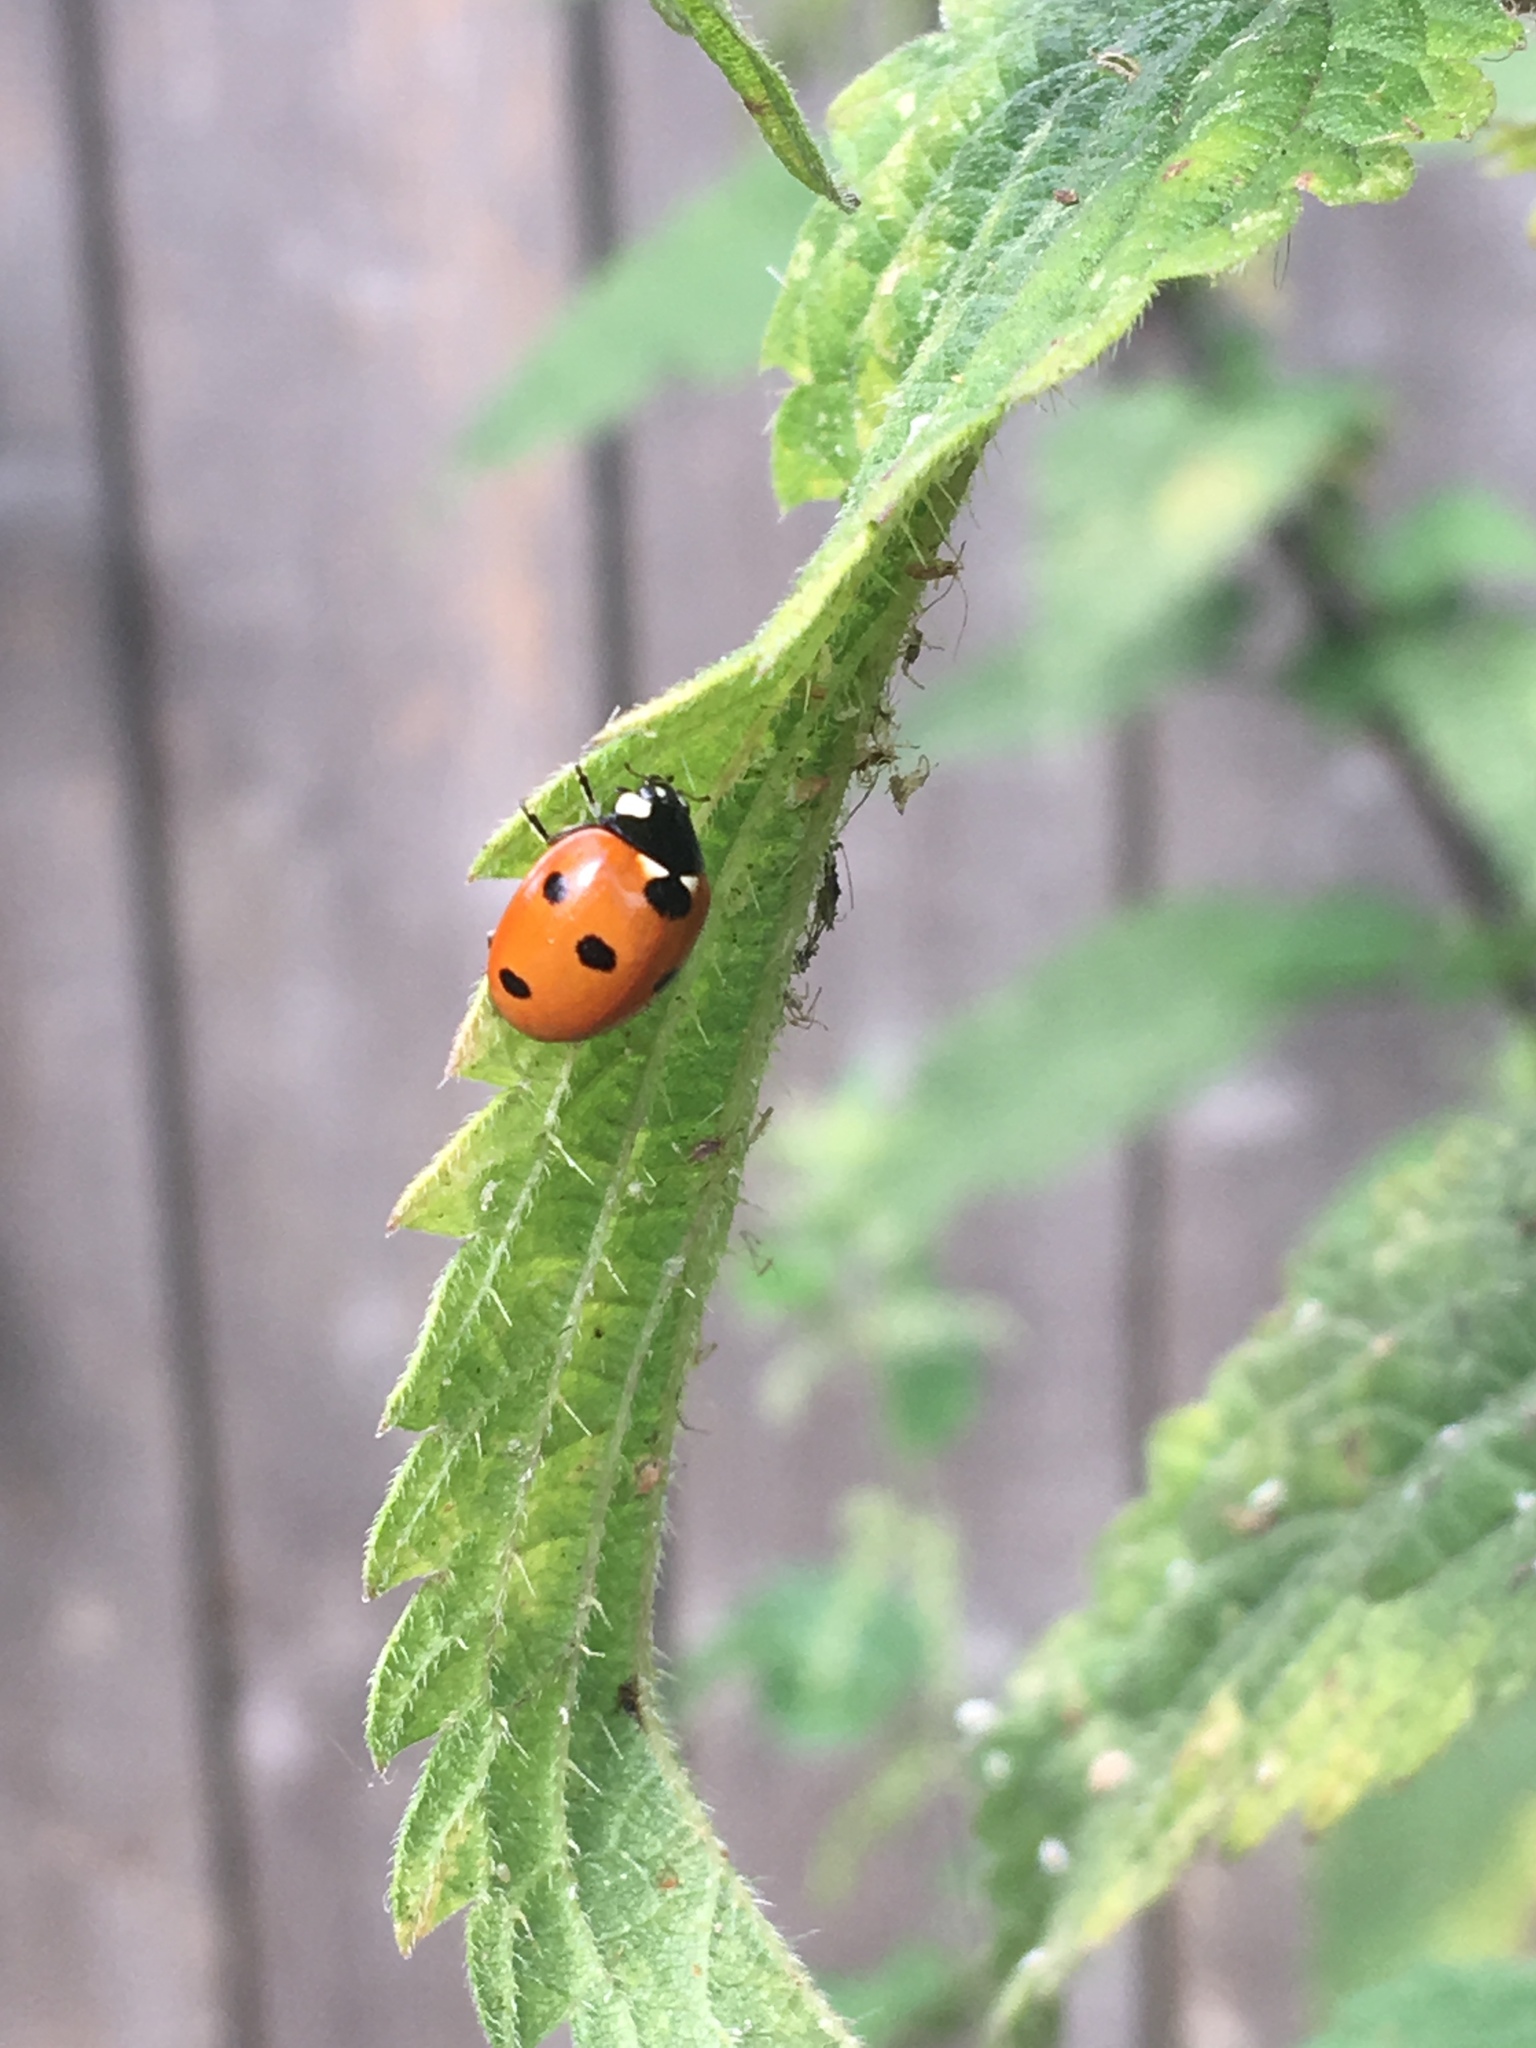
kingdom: Animalia
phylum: Arthropoda
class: Insecta
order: Coleoptera
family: Coccinellidae
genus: Coccinella
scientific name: Coccinella septempunctata
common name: Sevenspotted lady beetle
